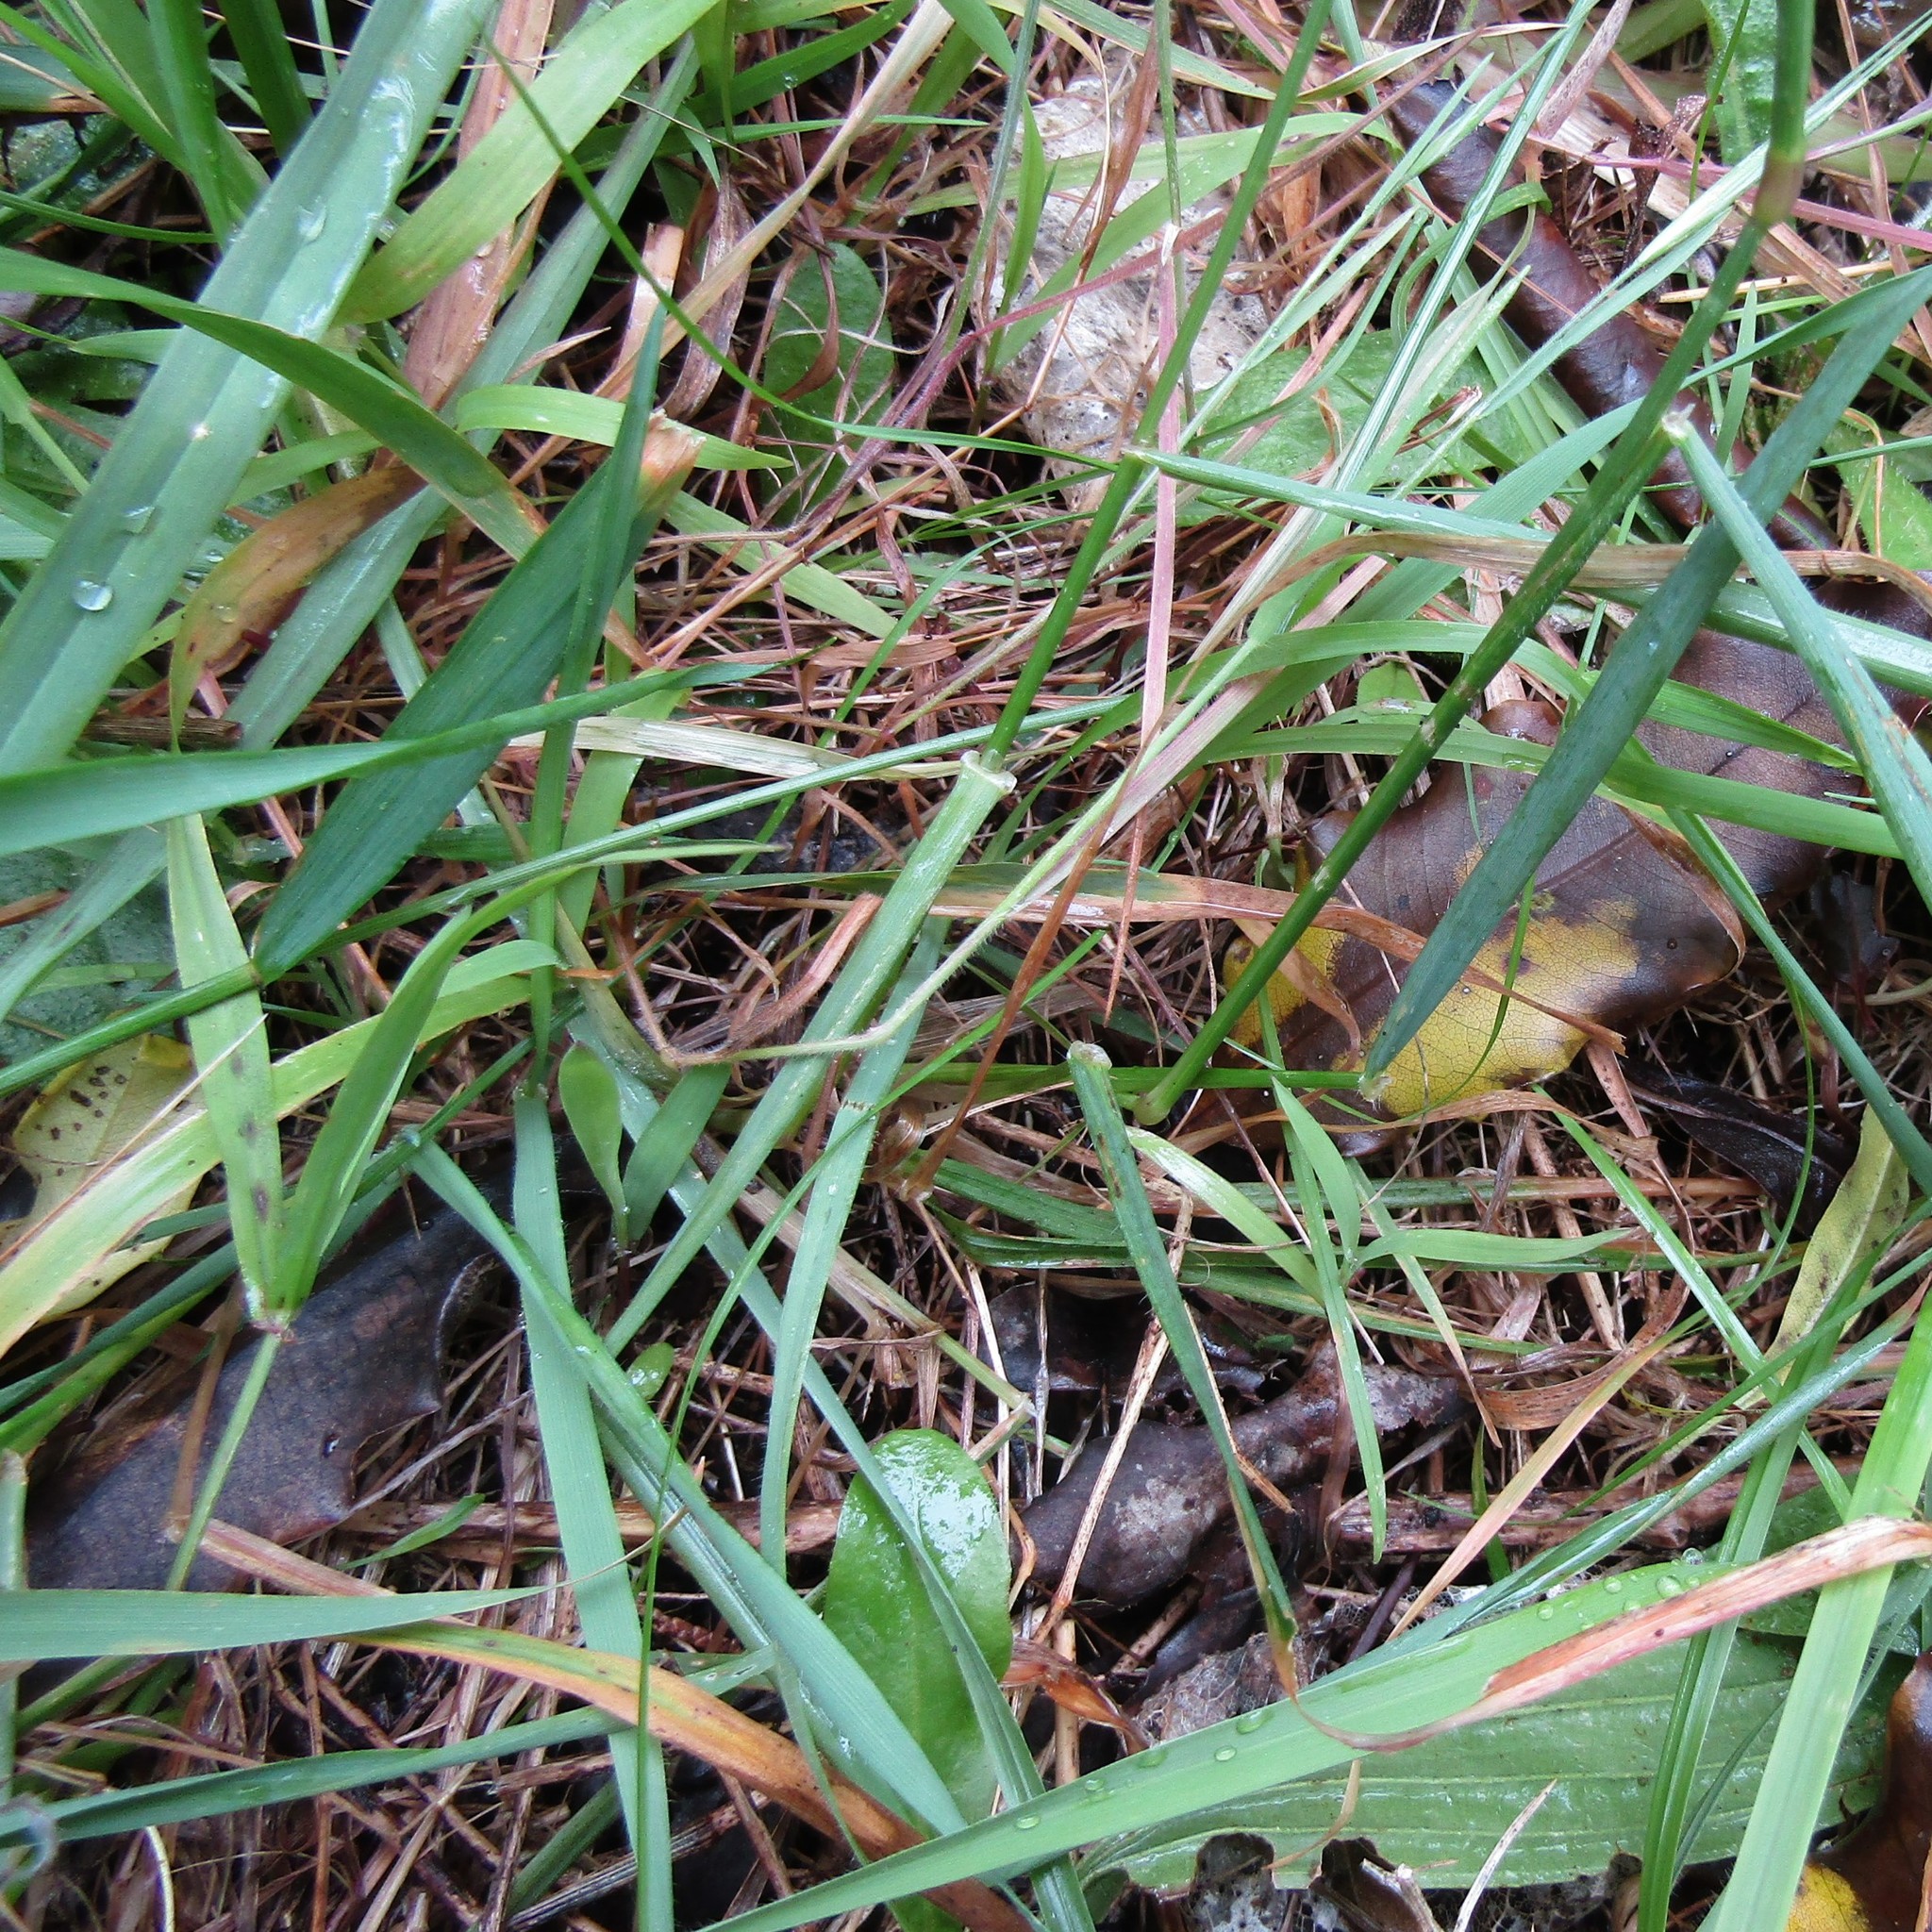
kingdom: Plantae
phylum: Tracheophyta
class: Liliopsida
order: Poales
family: Poaceae
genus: Anthoxanthum
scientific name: Anthoxanthum odoratum
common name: Sweet vernalgrass
